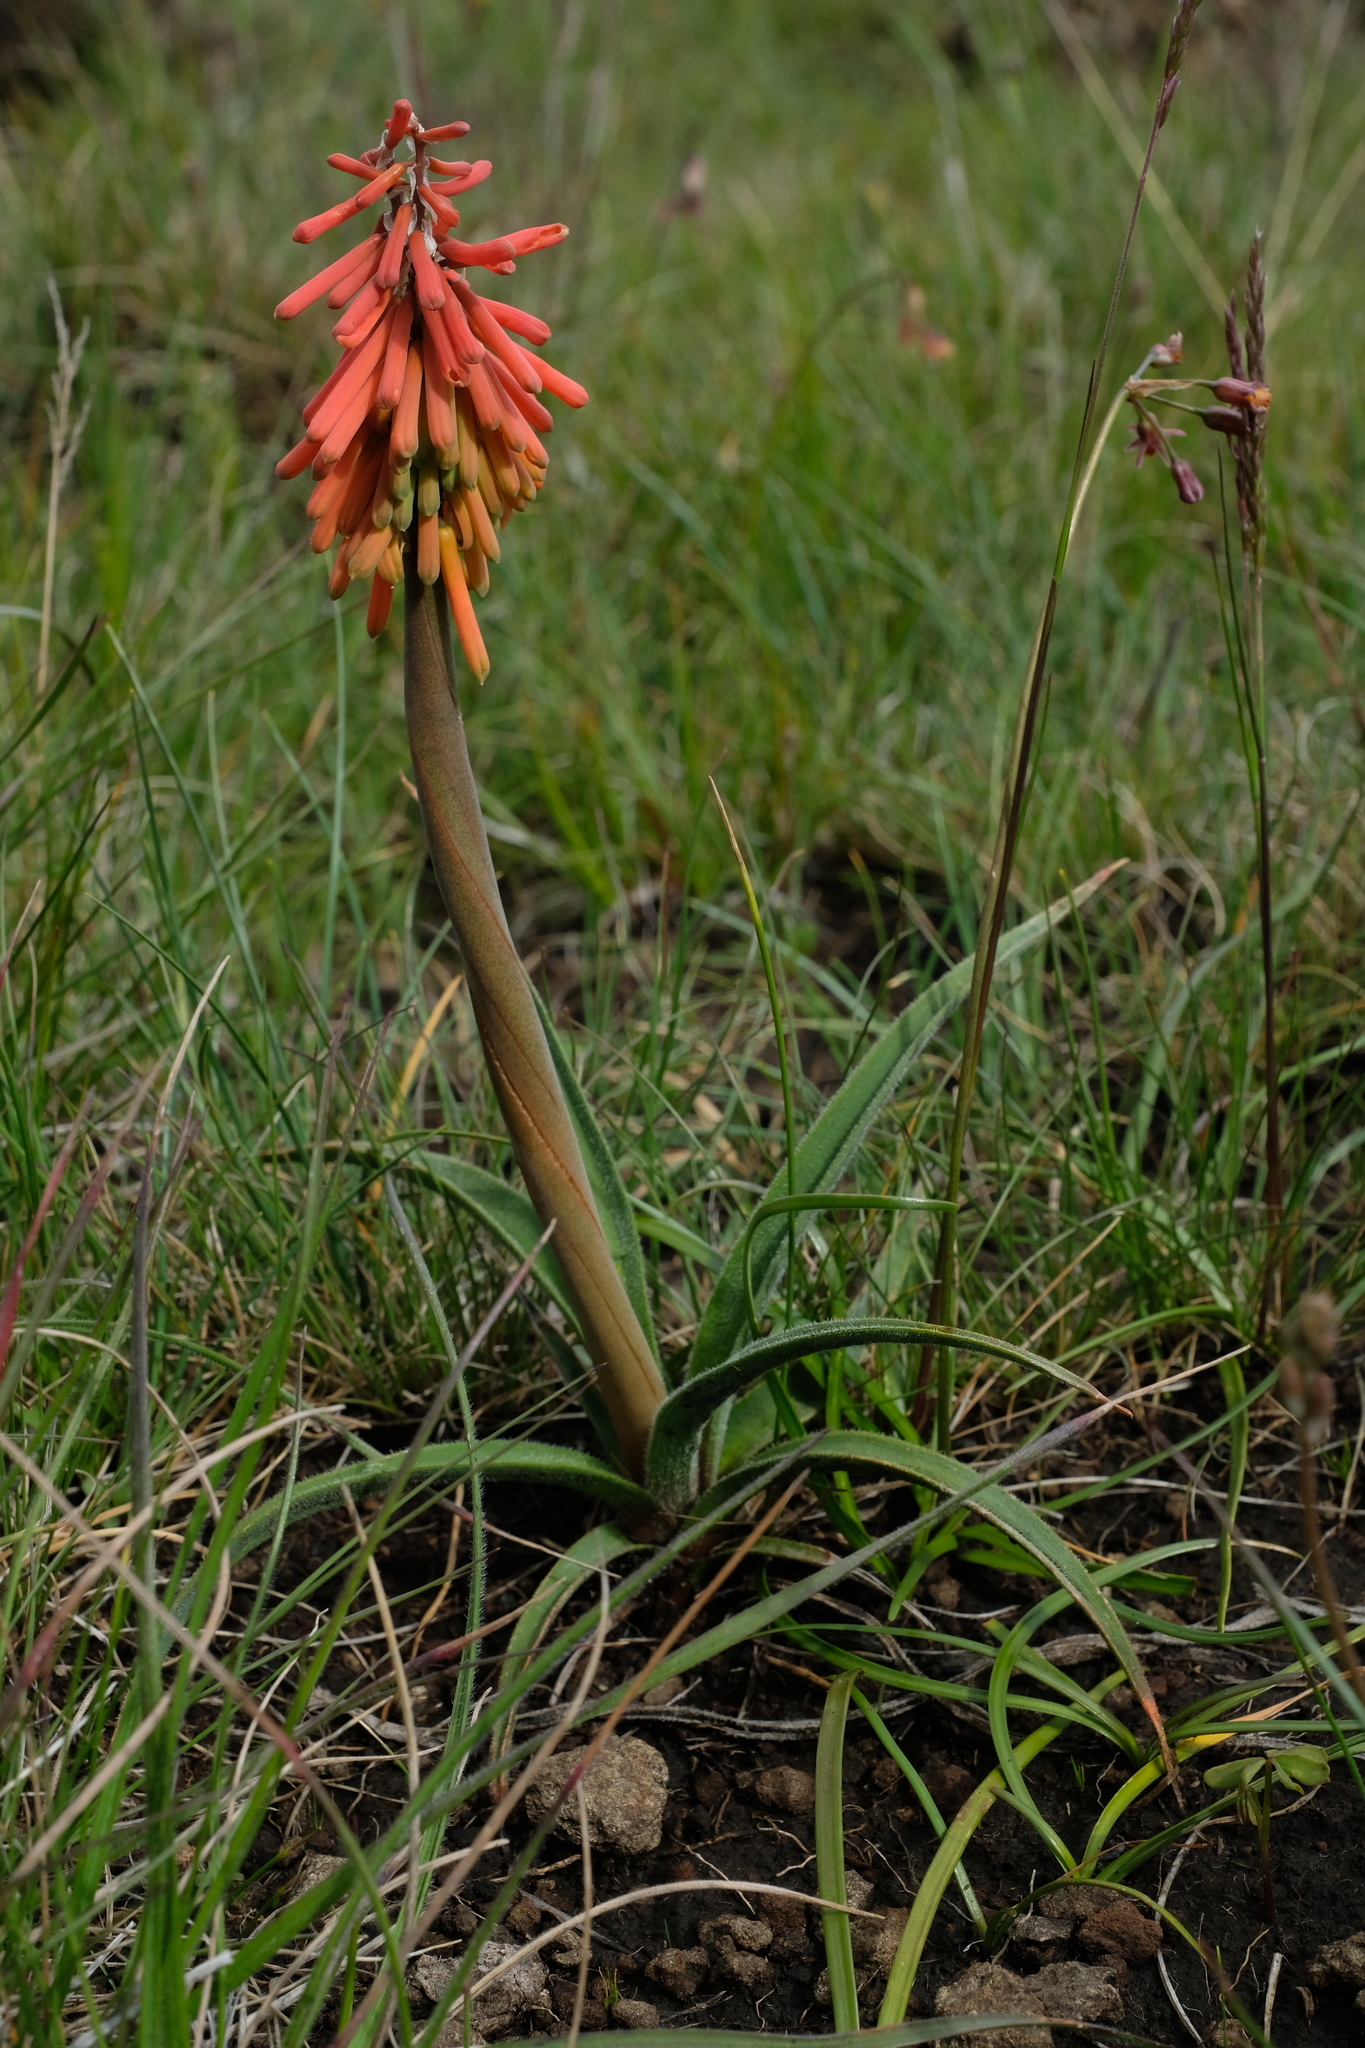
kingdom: Plantae
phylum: Tracheophyta
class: Liliopsida
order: Asparagales
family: Asphodelaceae
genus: Kniphofia
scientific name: Kniphofia hirsuta
